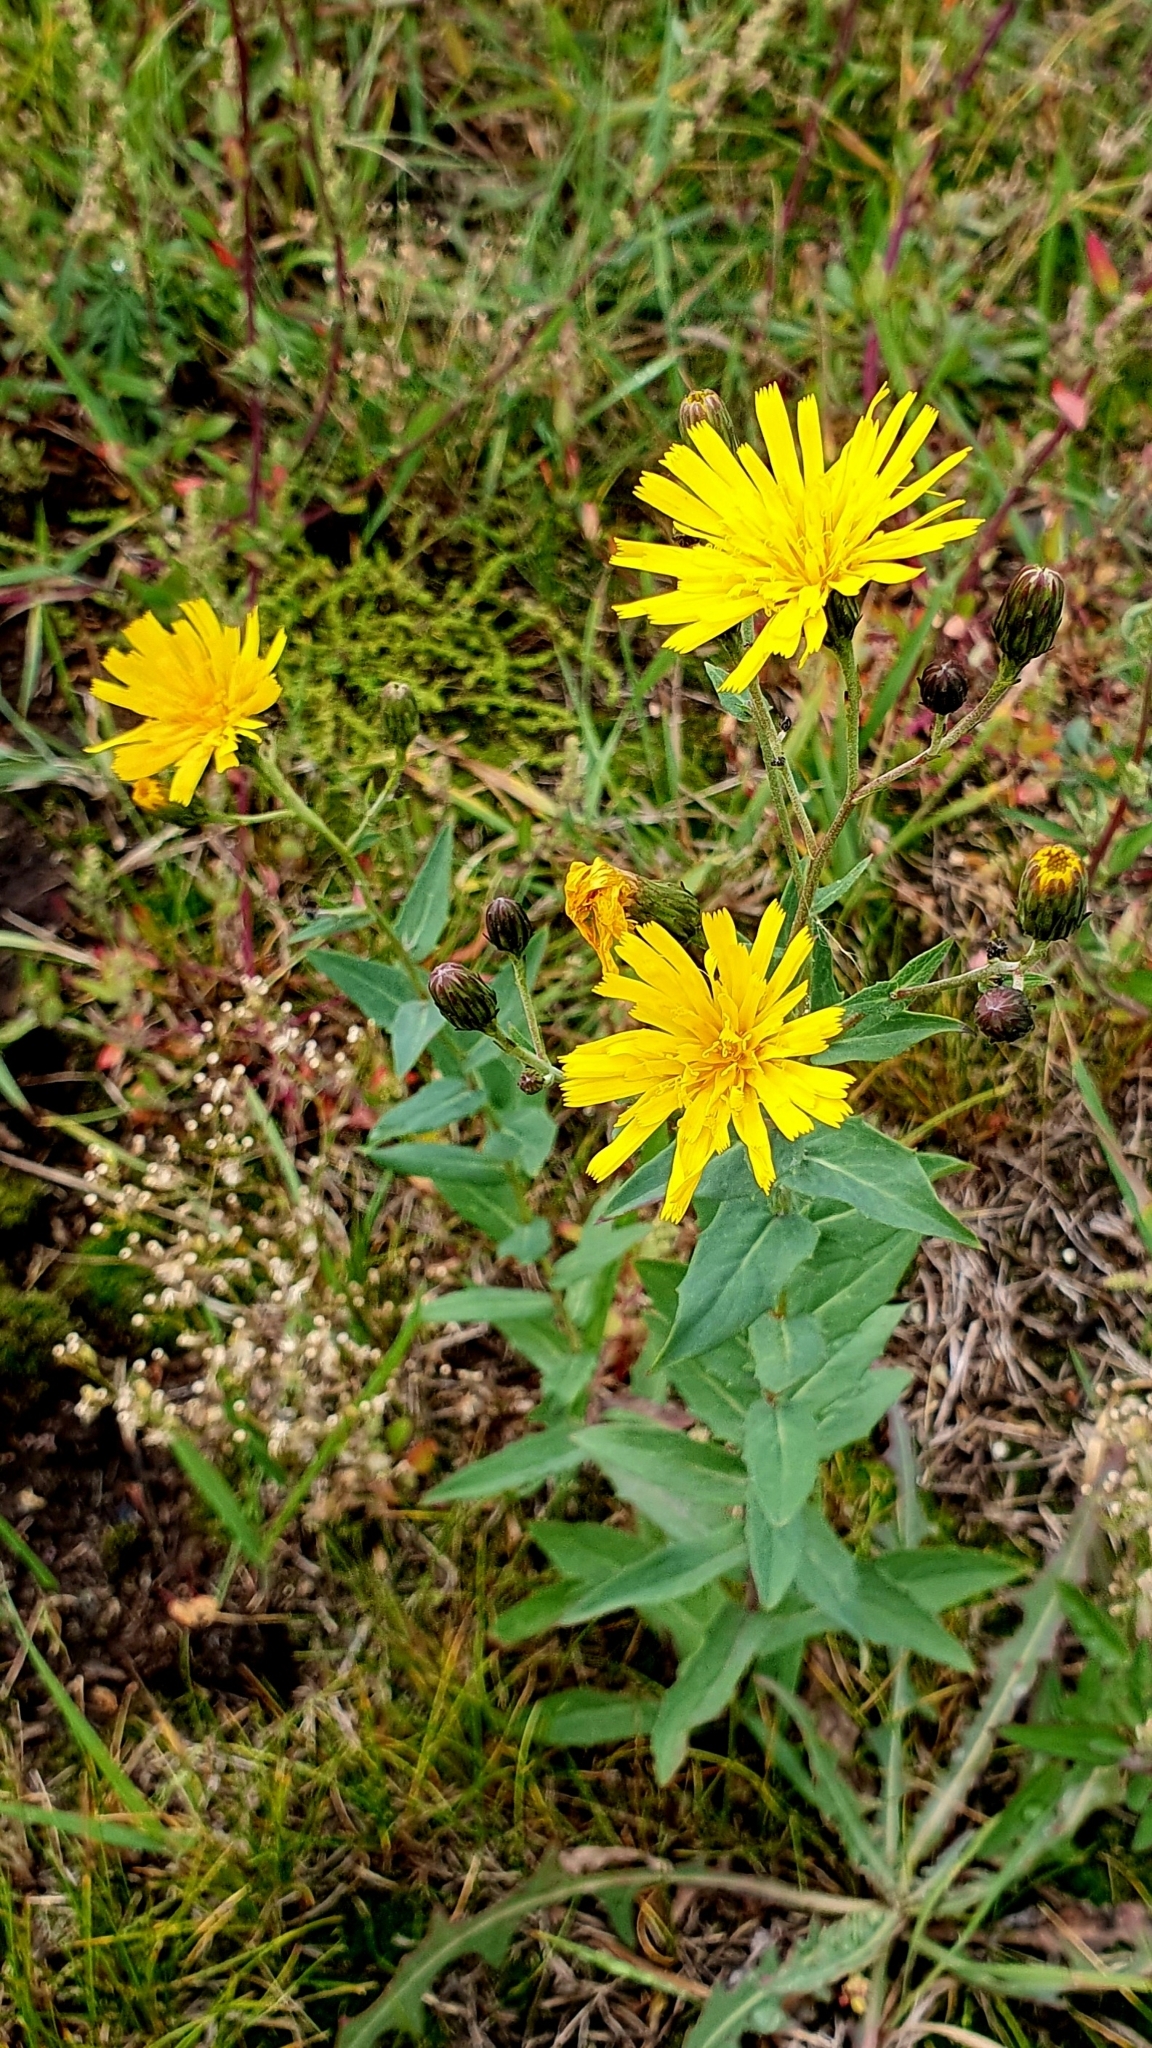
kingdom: Plantae
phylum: Tracheophyta
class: Magnoliopsida
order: Asterales
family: Asteraceae
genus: Hieracium
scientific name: Hieracium robustum
